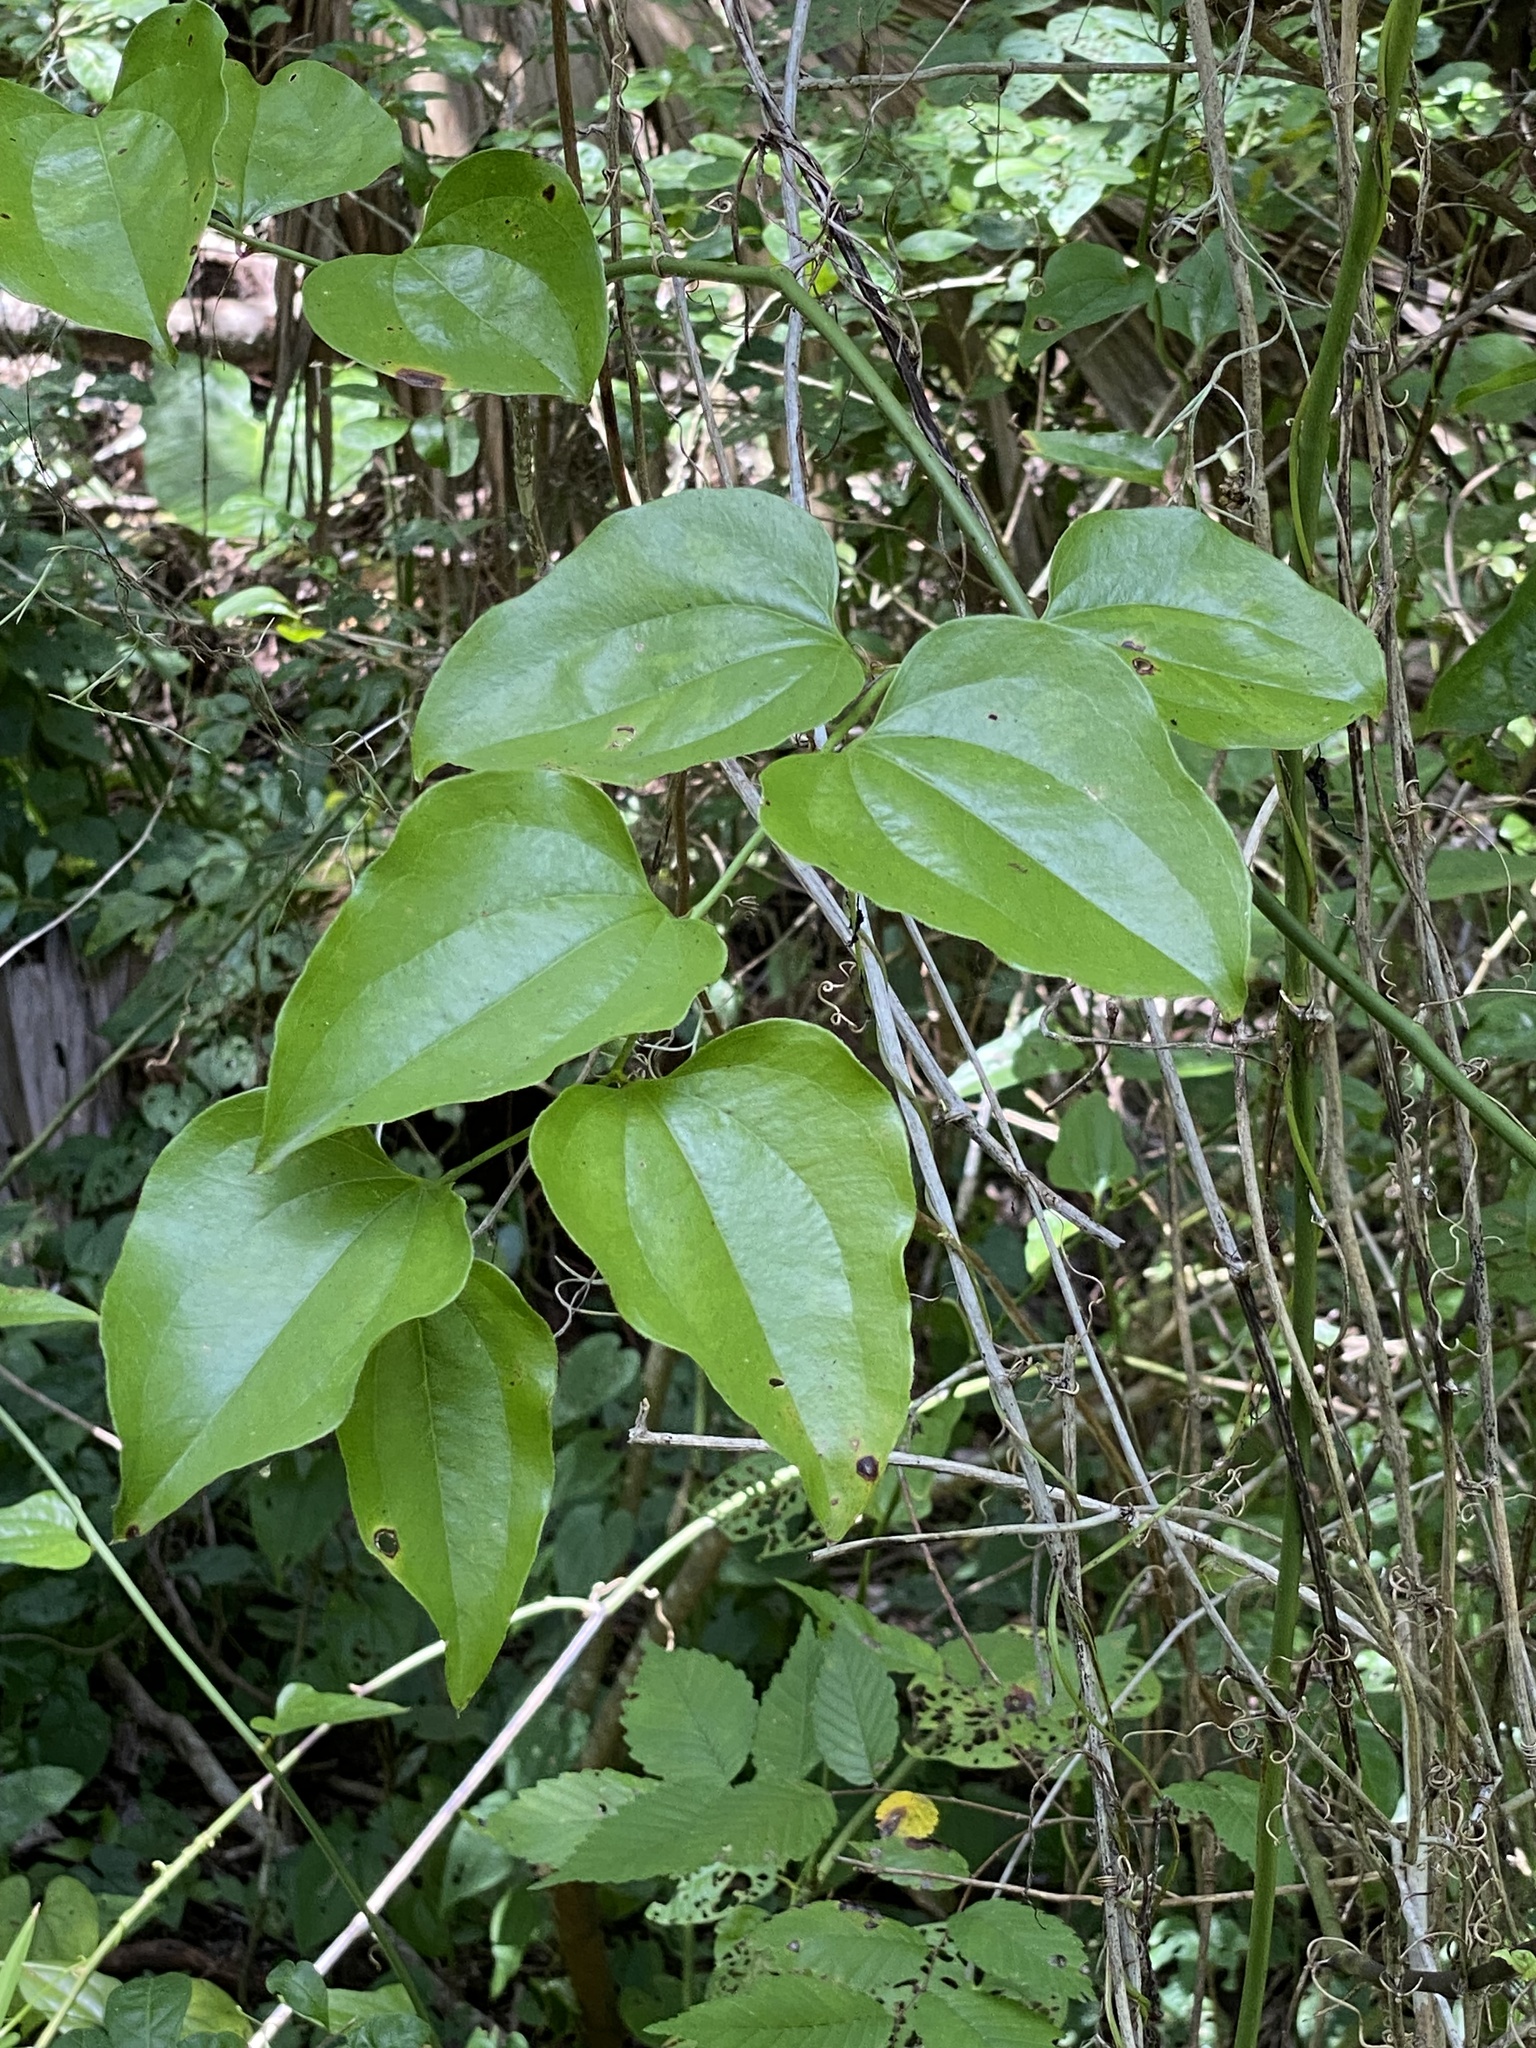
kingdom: Plantae
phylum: Tracheophyta
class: Liliopsida
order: Liliales
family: Smilacaceae
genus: Smilax
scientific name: Smilax tamnoides
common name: Hellfetter
